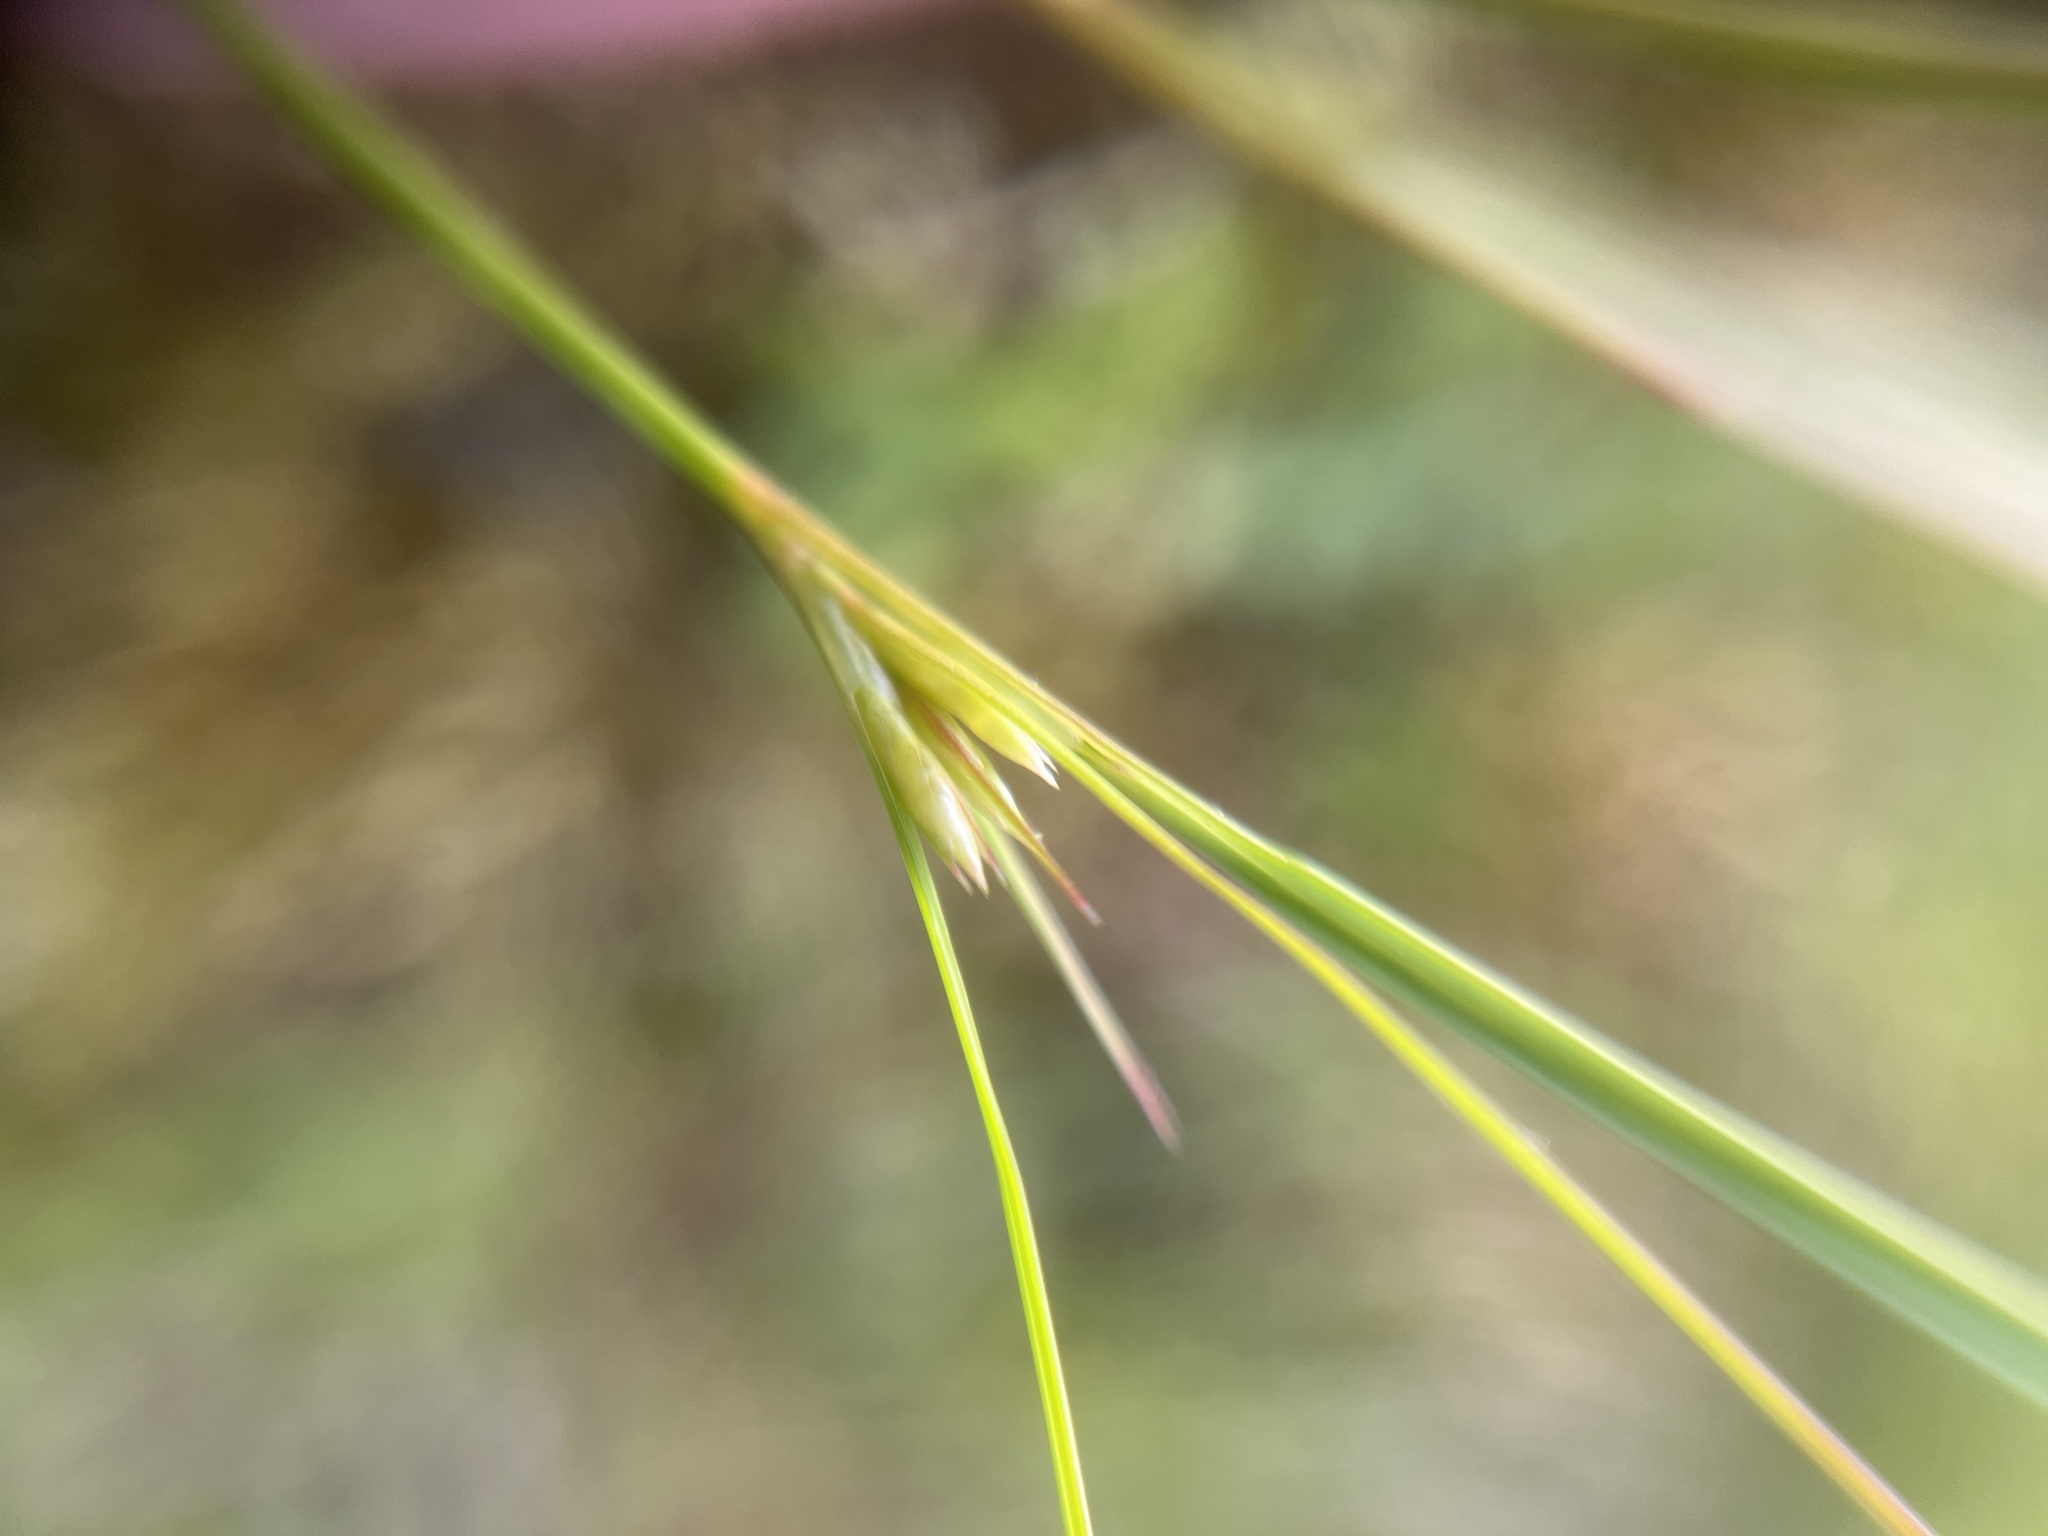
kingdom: Plantae
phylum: Tracheophyta
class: Liliopsida
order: Poales
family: Juncaceae
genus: Juncus
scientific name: Juncus tenuis
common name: Slender rush
